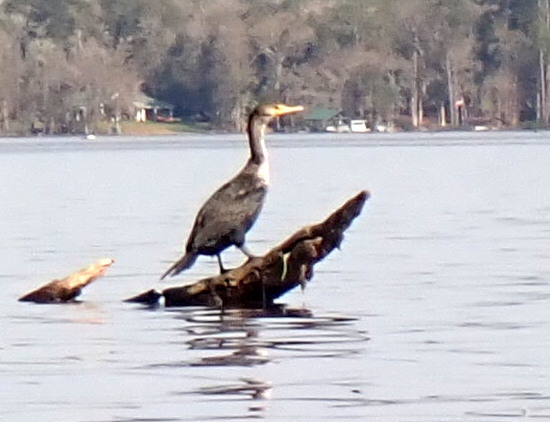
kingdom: Animalia
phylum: Chordata
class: Aves
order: Suliformes
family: Phalacrocoracidae
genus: Phalacrocorax
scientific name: Phalacrocorax auritus
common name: Double-crested cormorant
